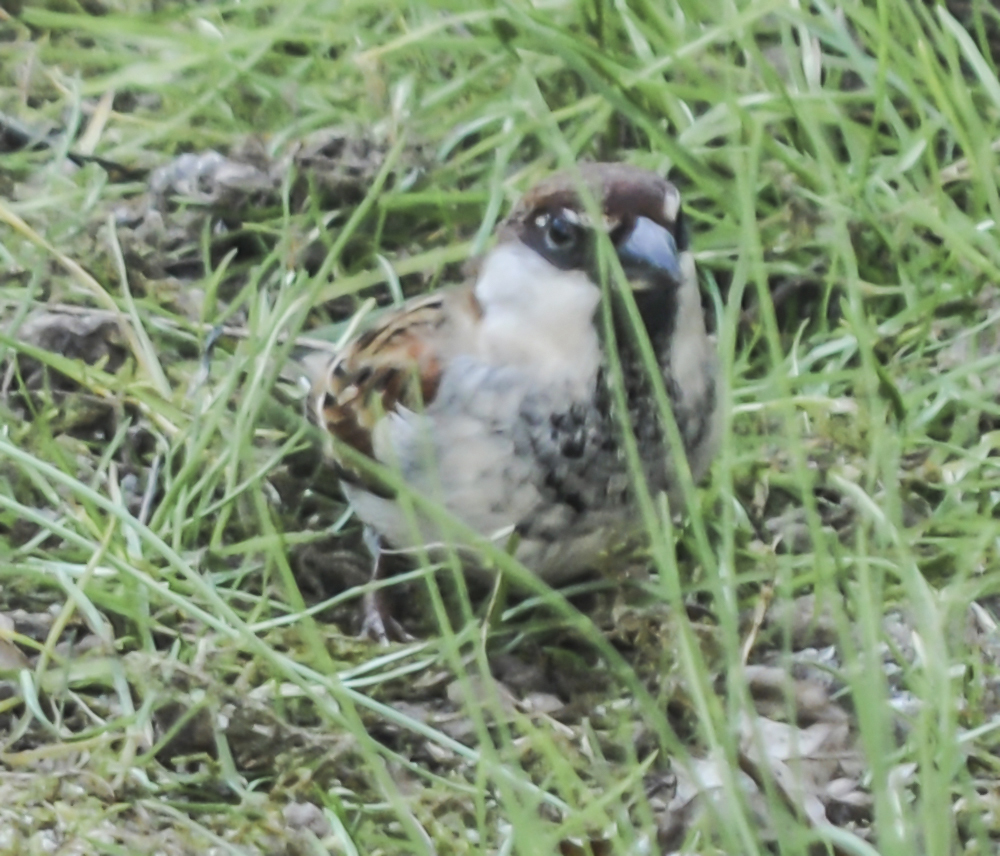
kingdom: Animalia
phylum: Chordata
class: Aves
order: Passeriformes
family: Passeridae
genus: Passer
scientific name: Passer italiae
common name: Italian sparrow
